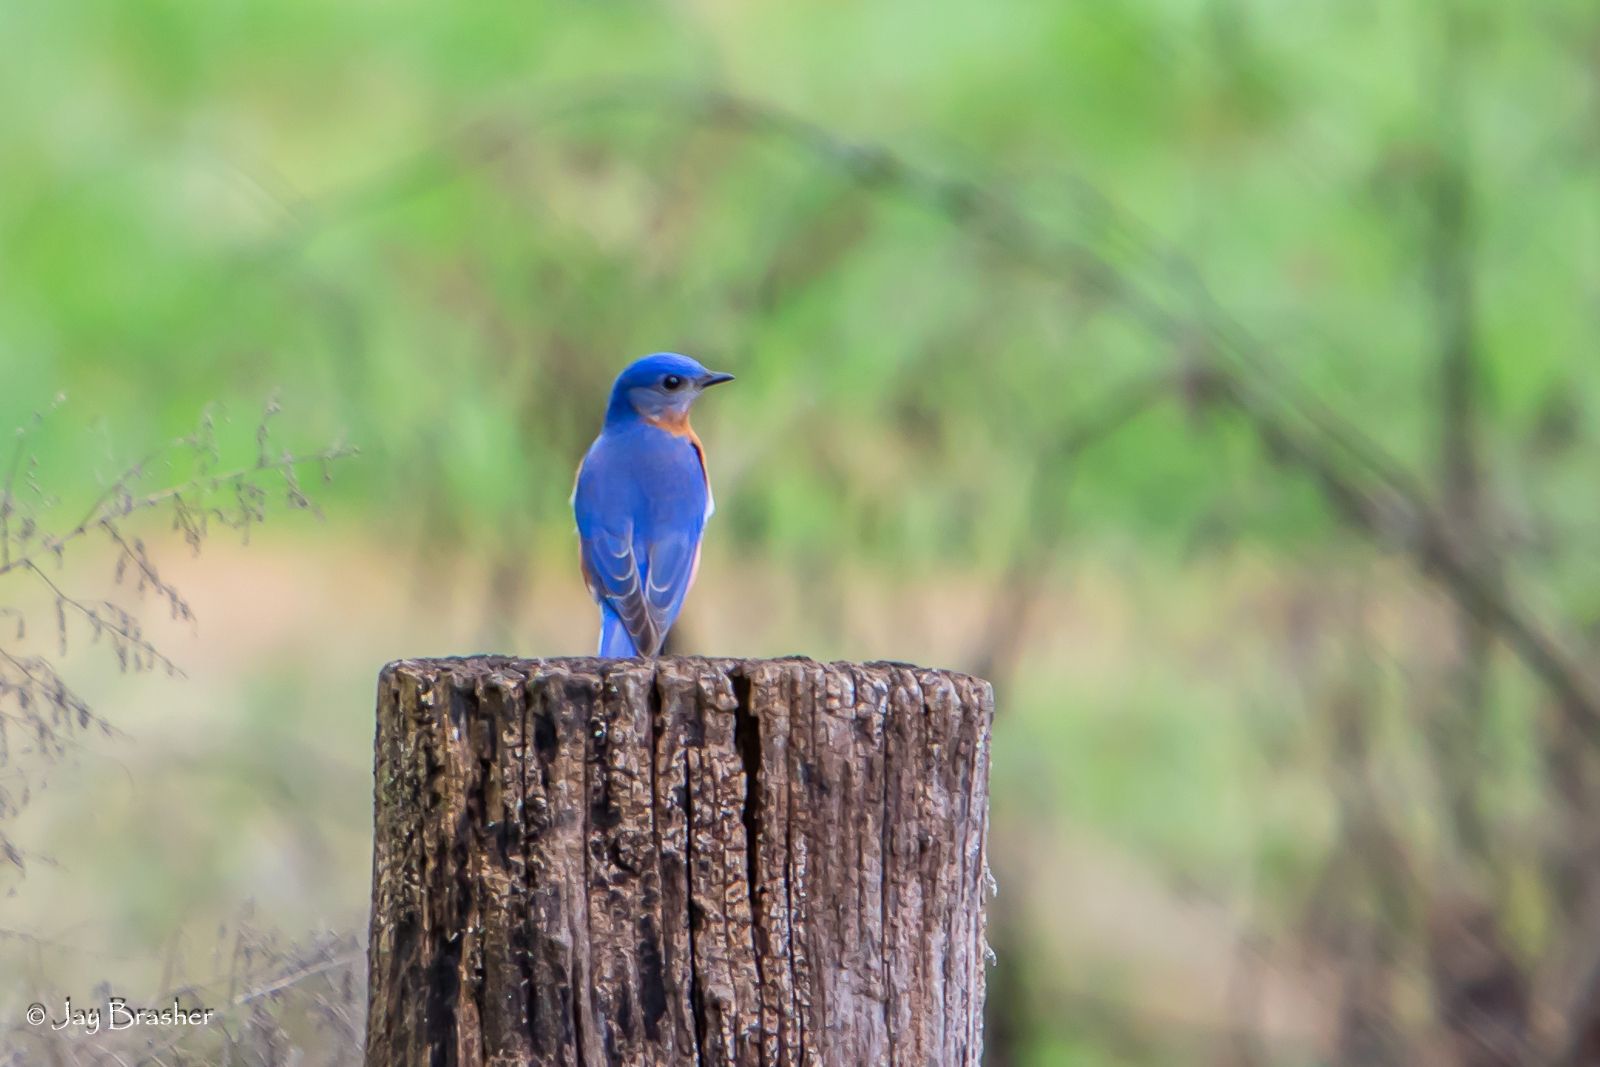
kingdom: Animalia
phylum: Chordata
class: Aves
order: Passeriformes
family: Turdidae
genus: Sialia
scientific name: Sialia sialis
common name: Eastern bluebird
